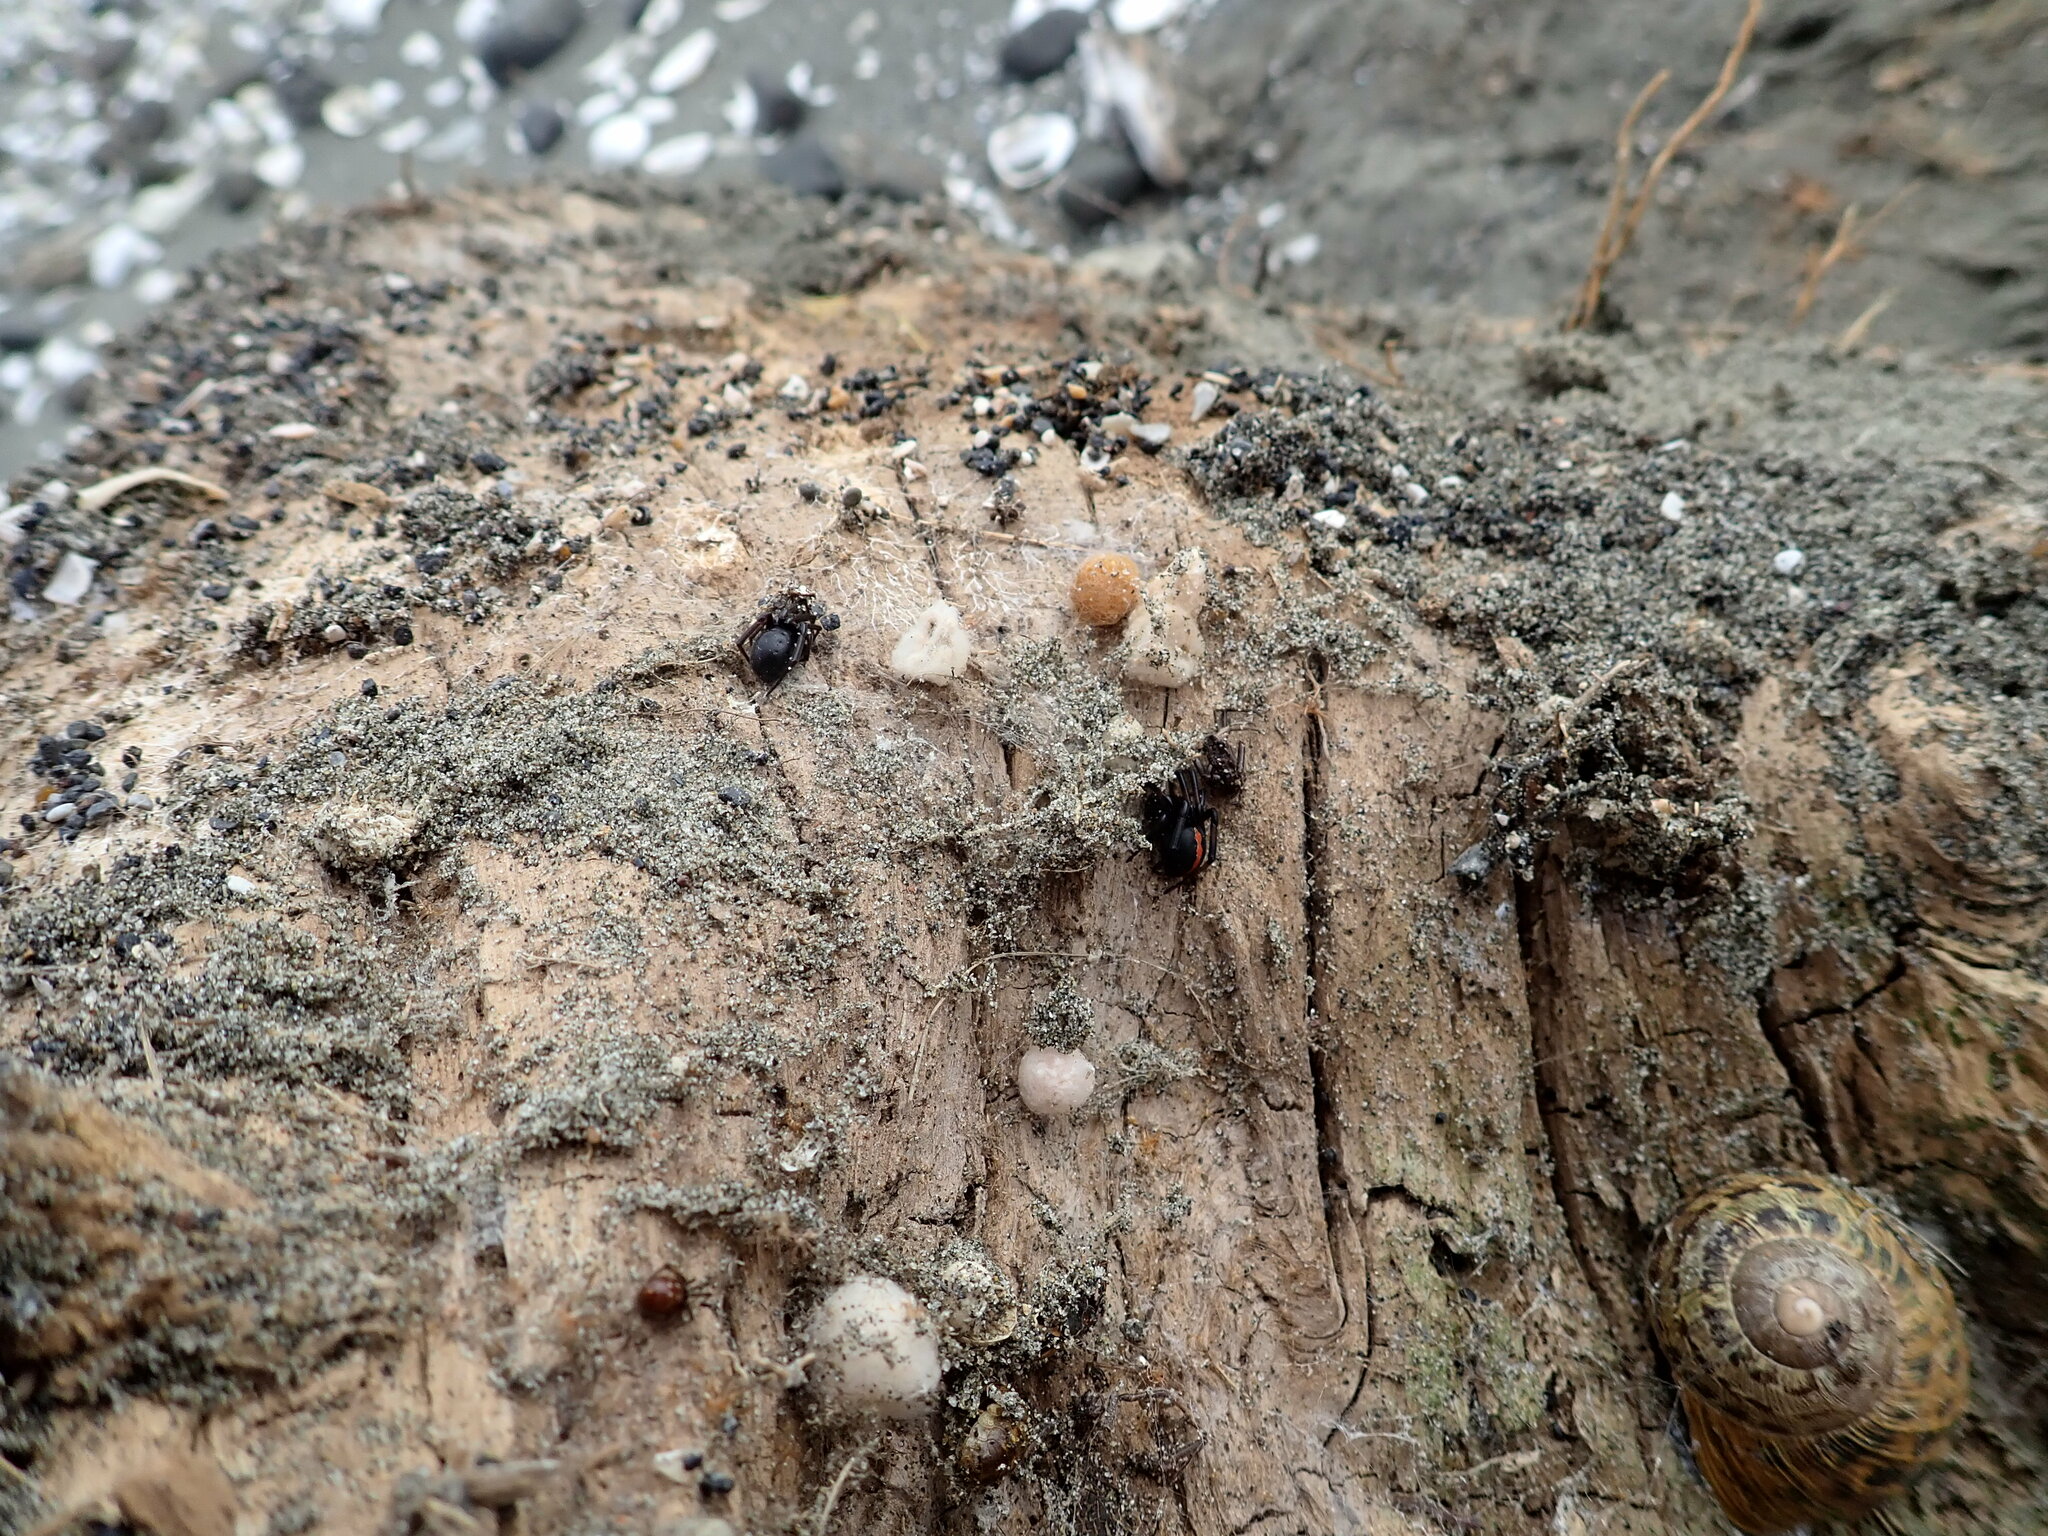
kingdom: Animalia
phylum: Arthropoda
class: Arachnida
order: Araneae
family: Theridiidae
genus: Steatoda
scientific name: Steatoda capensis
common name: Cobweb weaver
